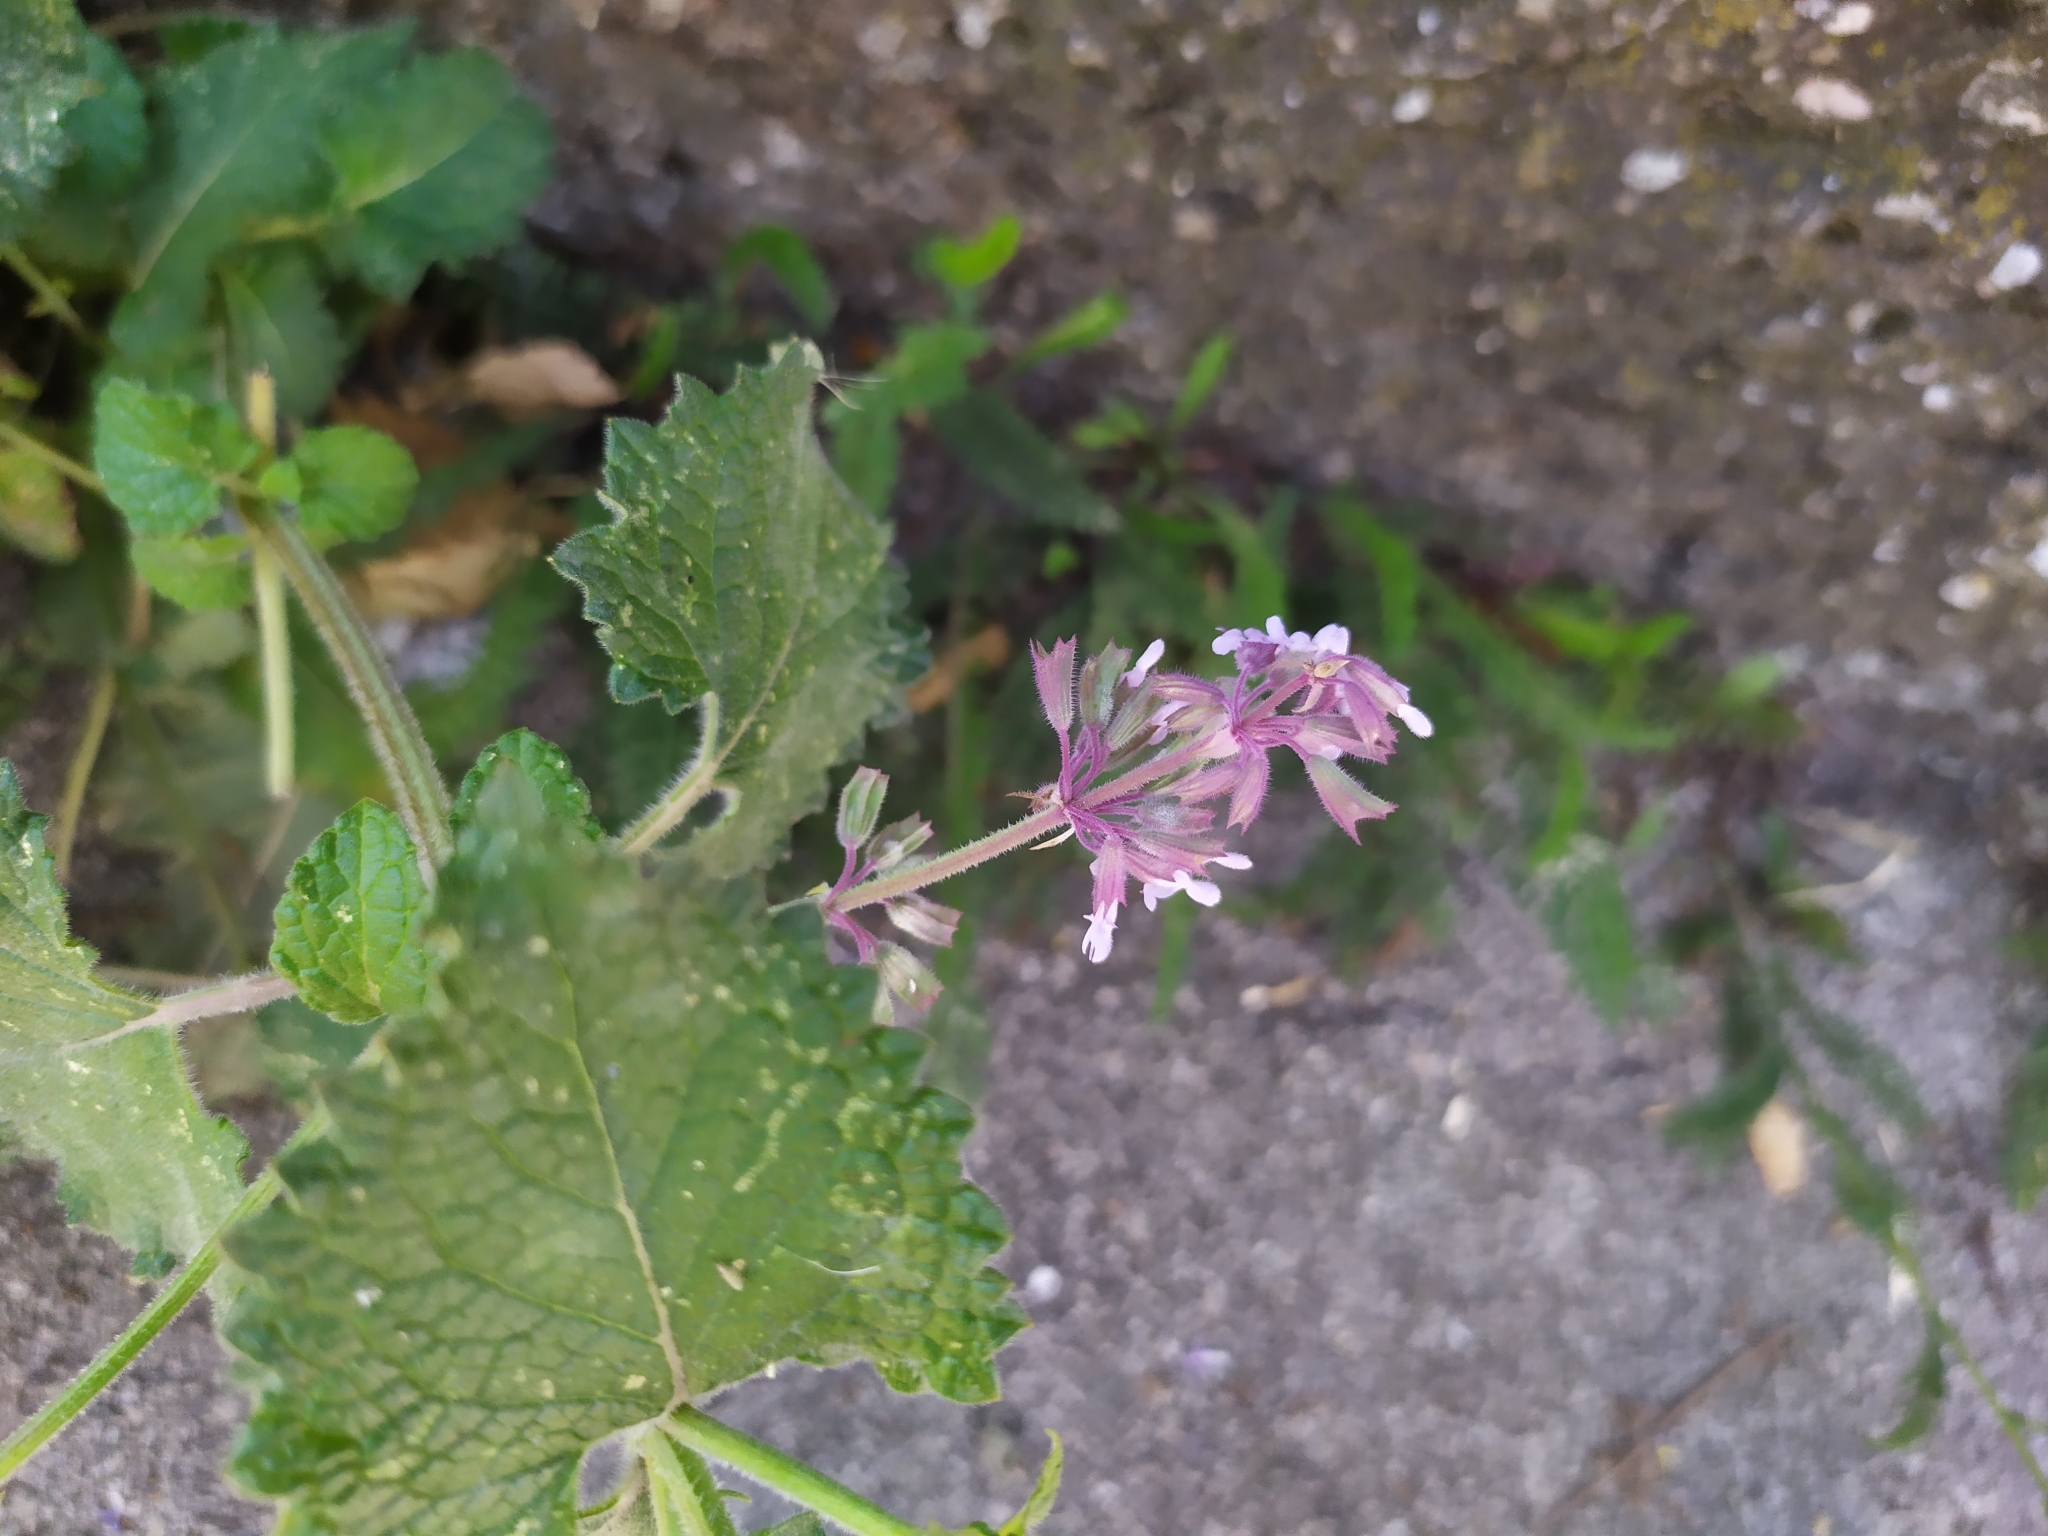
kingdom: Plantae
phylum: Tracheophyta
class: Magnoliopsida
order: Lamiales
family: Lamiaceae
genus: Salvia
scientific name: Salvia verticillata
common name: Whorled clary
